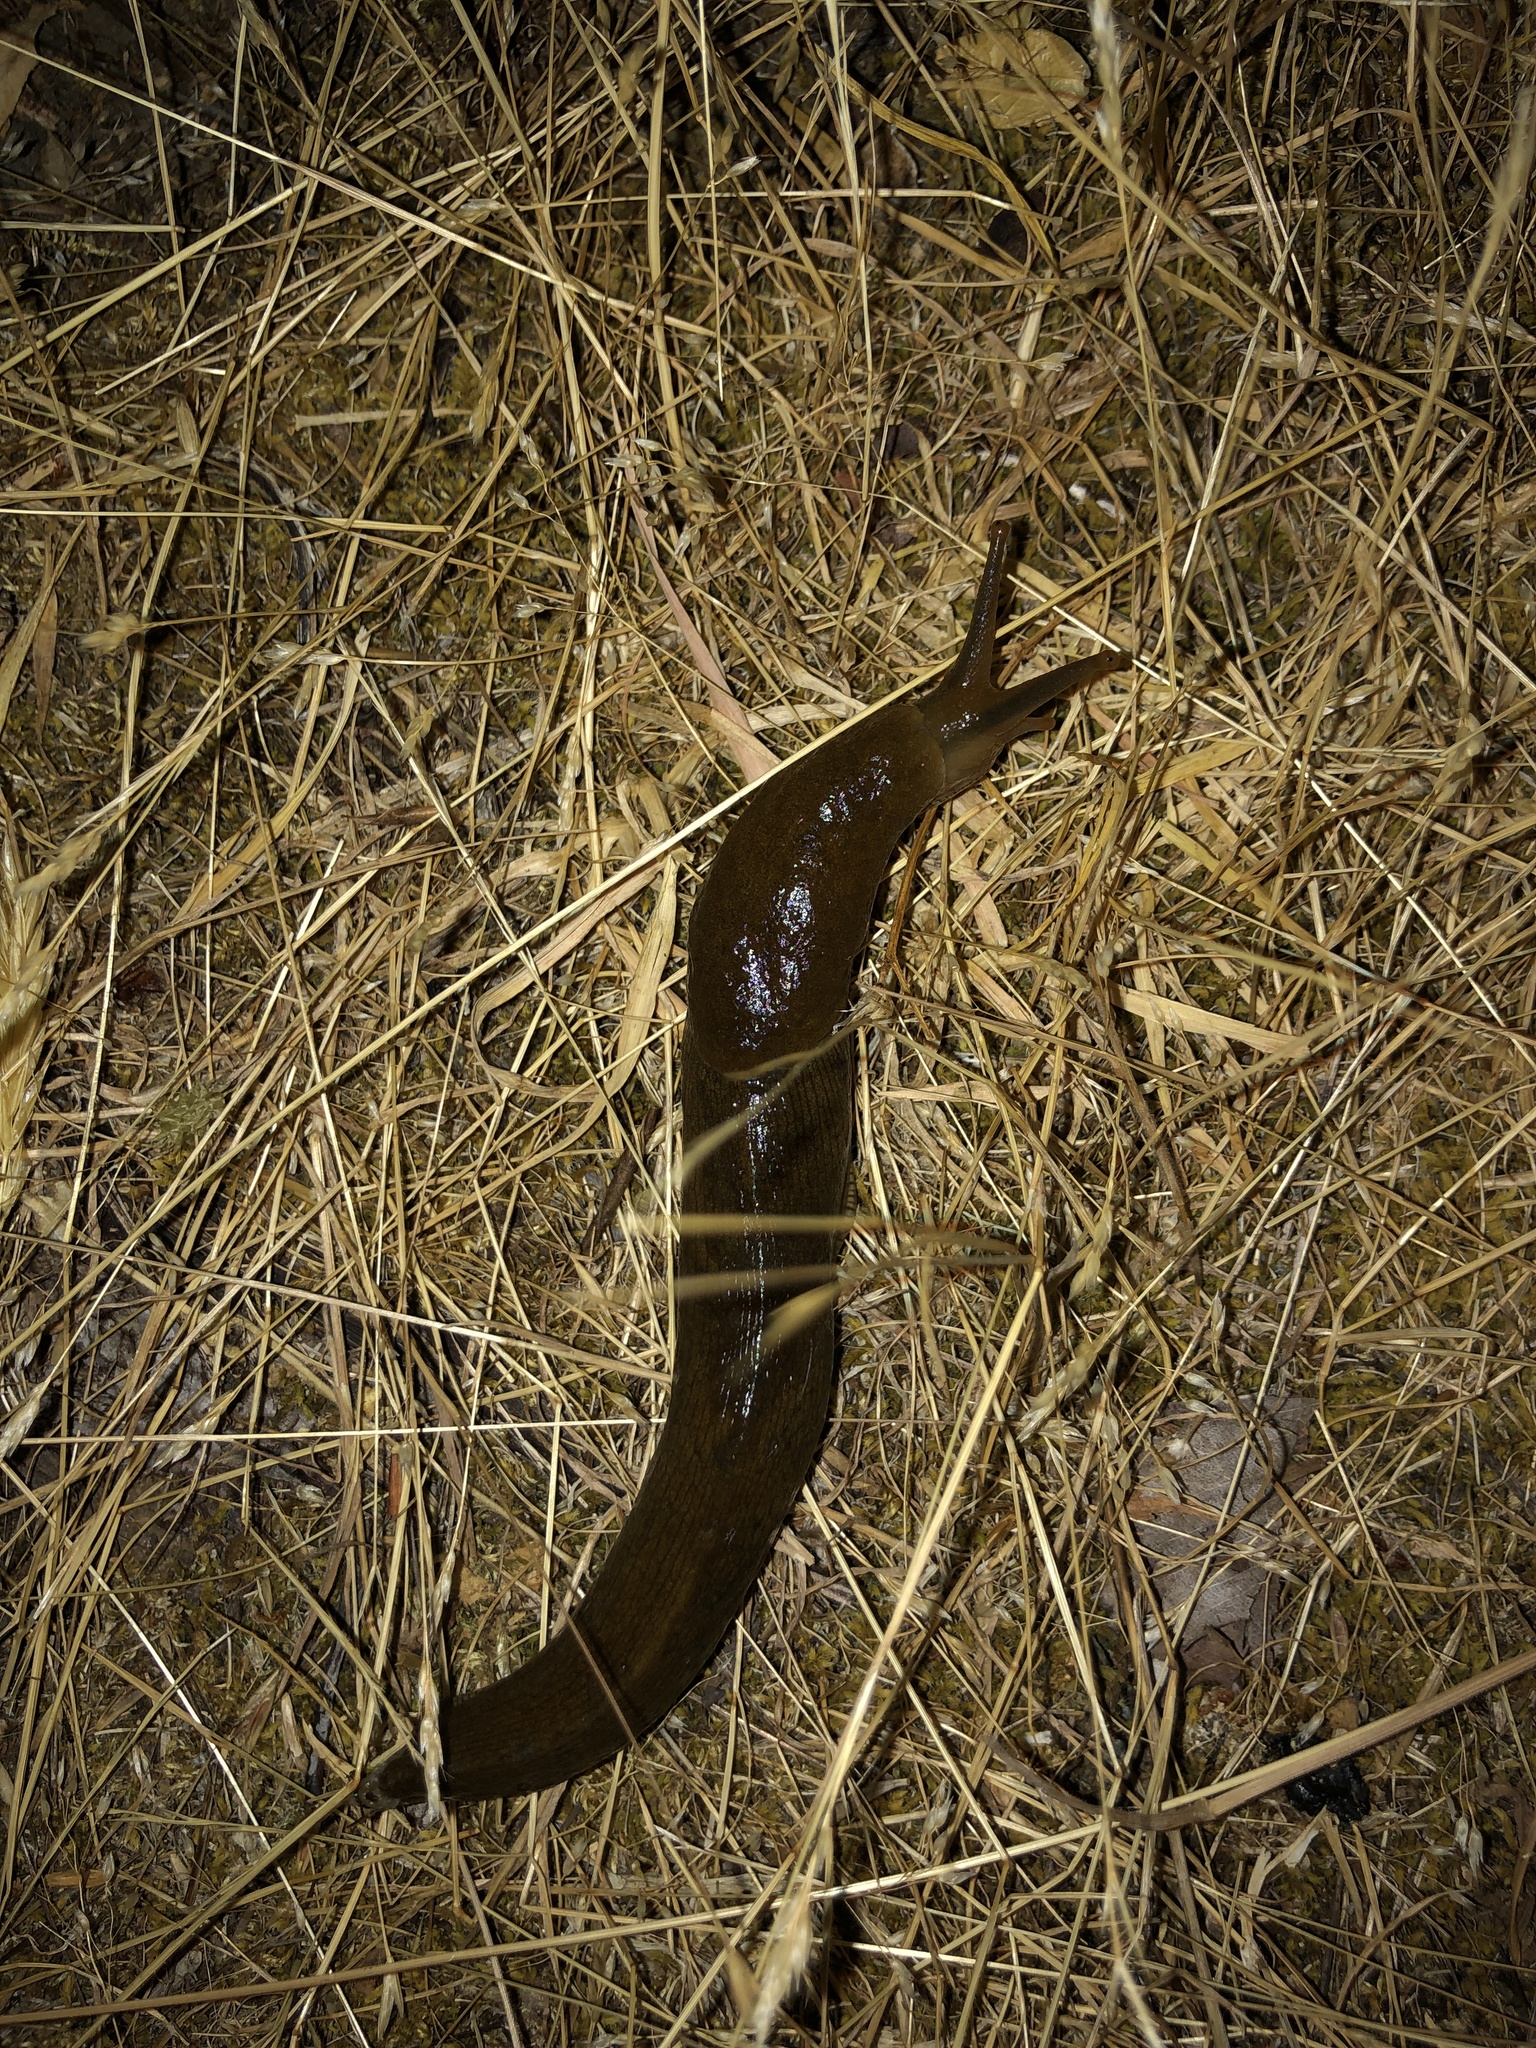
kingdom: Animalia
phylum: Mollusca
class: Gastropoda
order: Stylommatophora
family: Ariolimacidae
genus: Ariolimax
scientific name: Ariolimax columbianus
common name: Pacific banana slug
